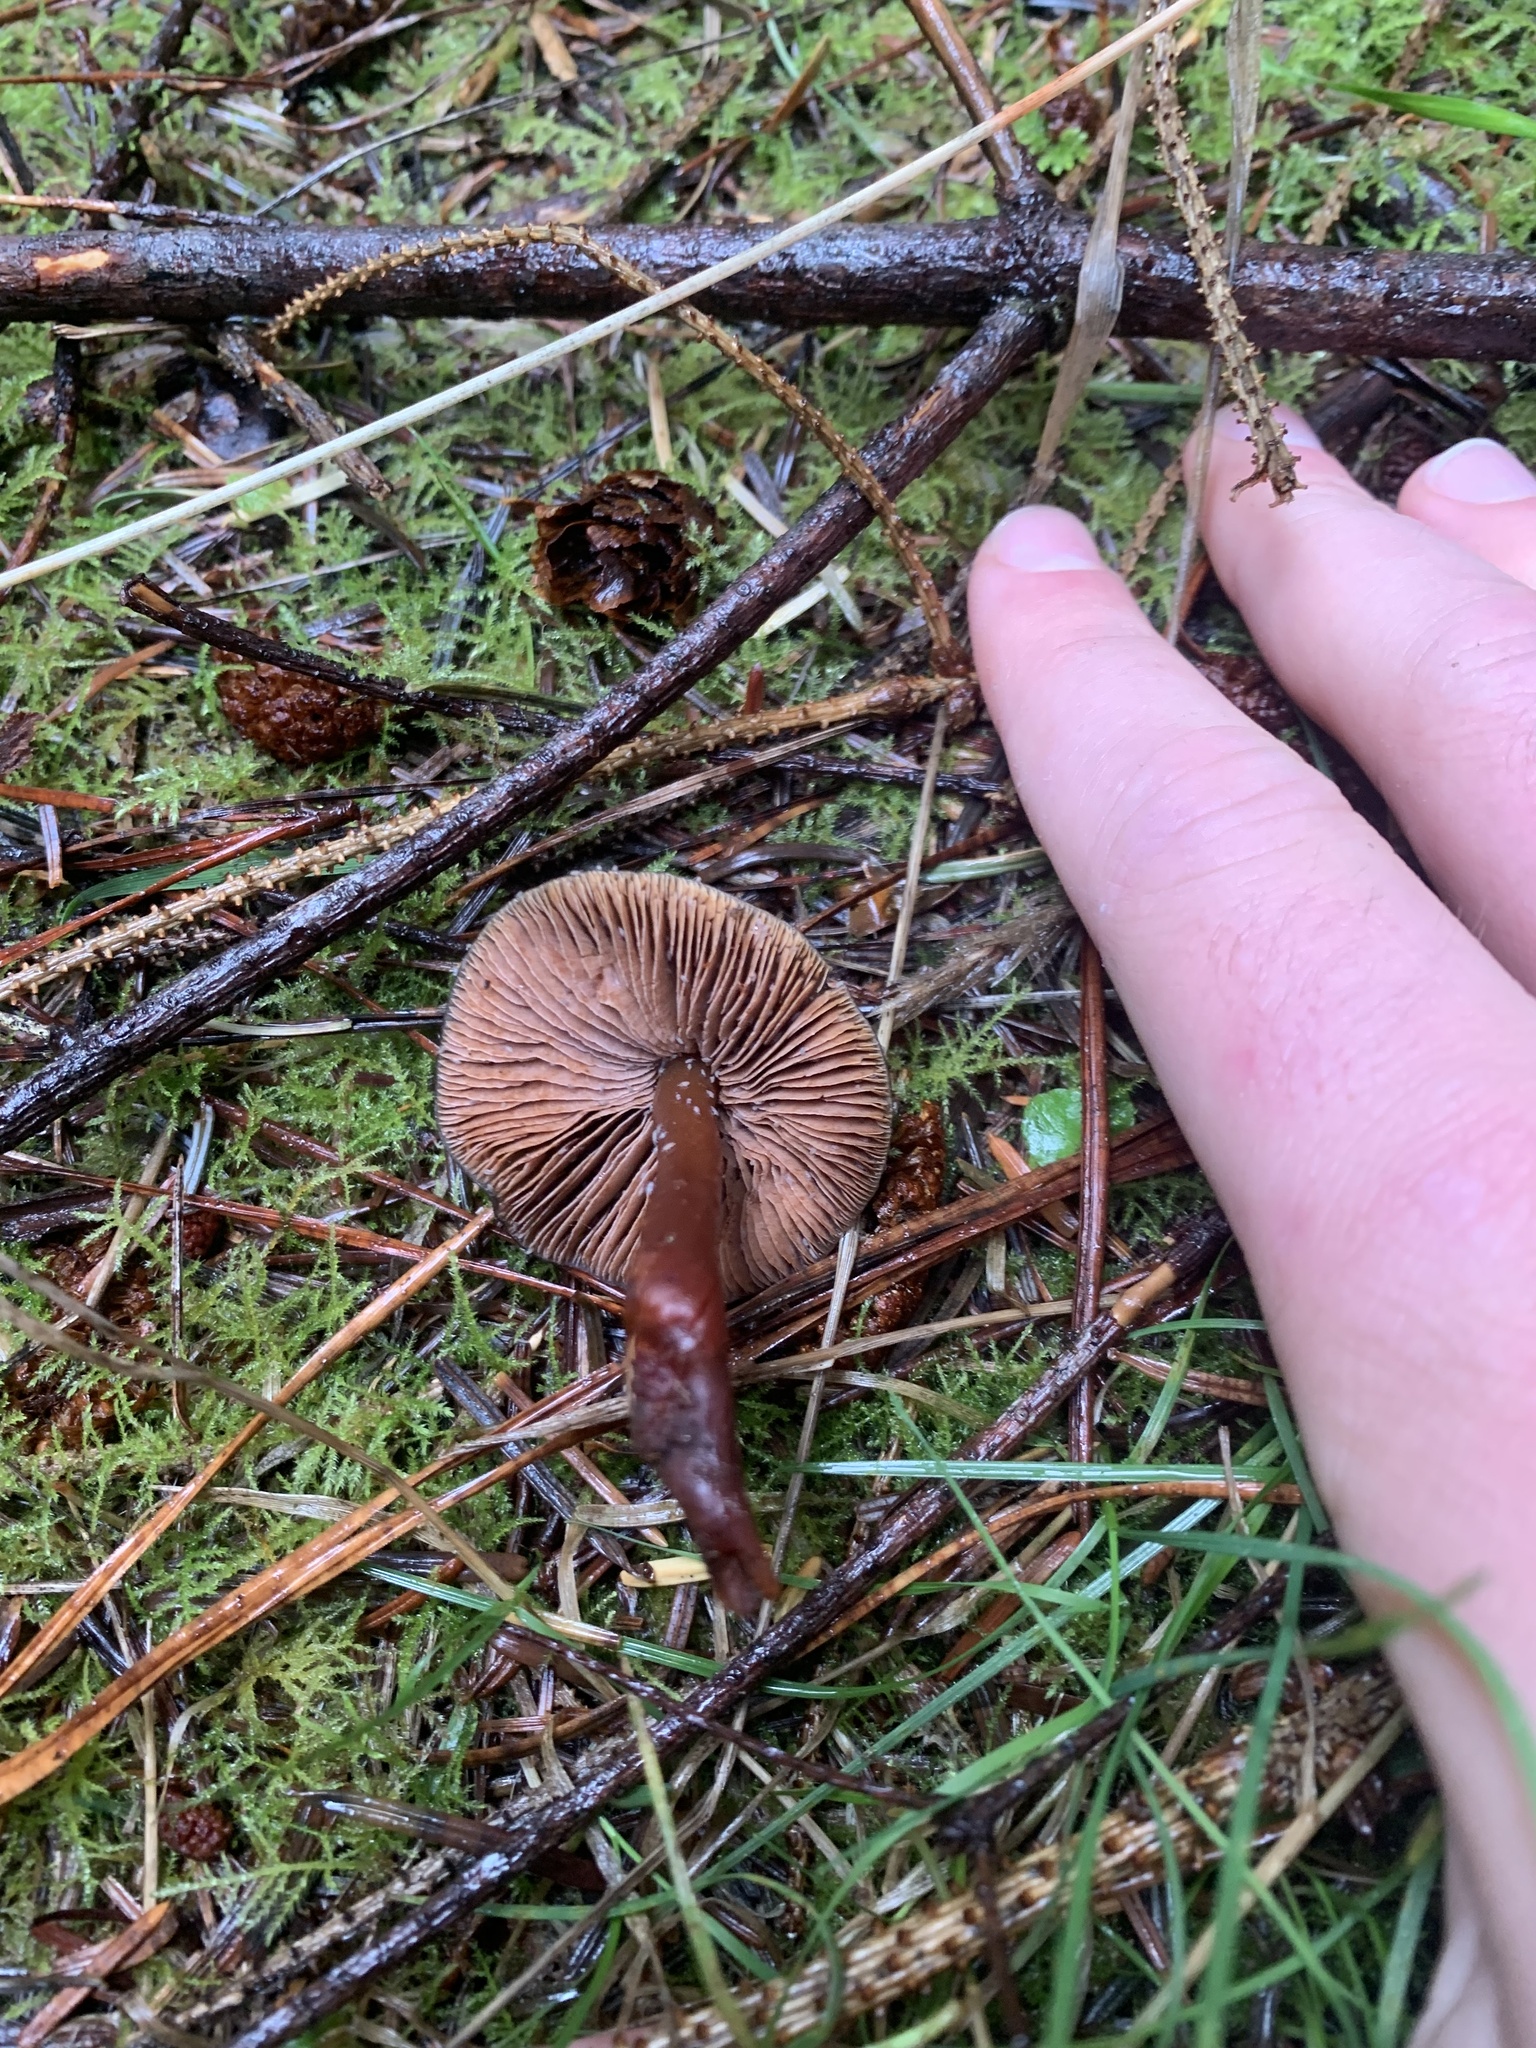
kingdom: Fungi
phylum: Basidiomycota
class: Agaricomycetes
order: Agaricales
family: Hymenogastraceae
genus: Phaeocollybia
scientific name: Phaeocollybia fallax
